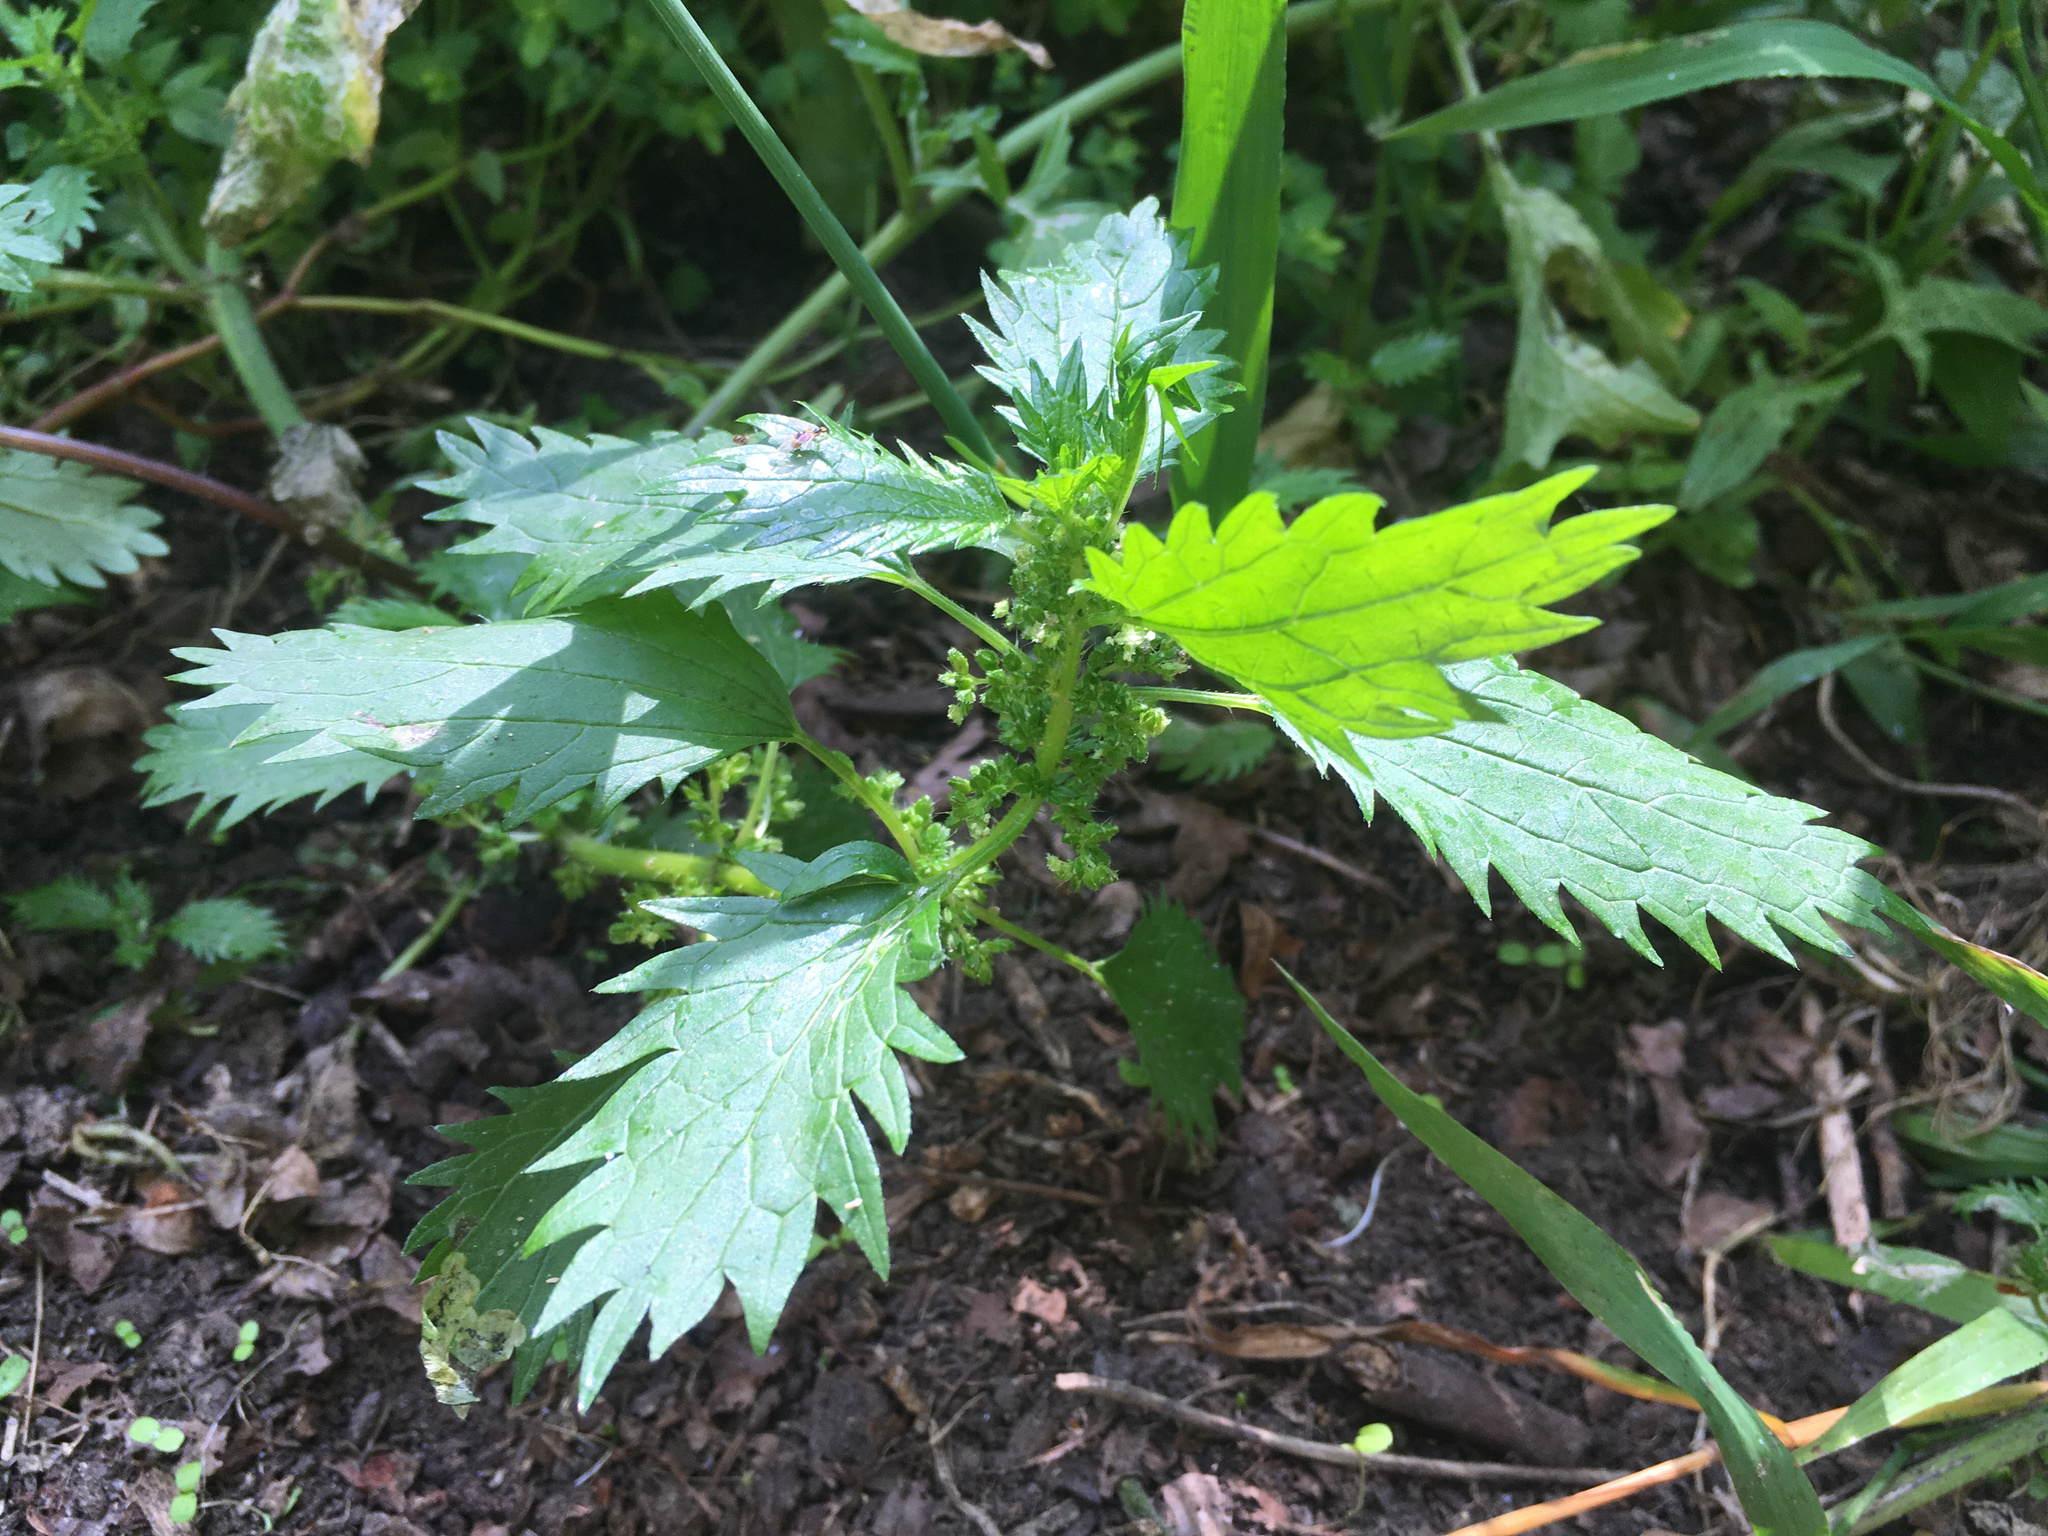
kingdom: Plantae
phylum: Tracheophyta
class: Magnoliopsida
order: Rosales
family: Urticaceae
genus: Urtica
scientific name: Urtica urens
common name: Dwarf nettle
